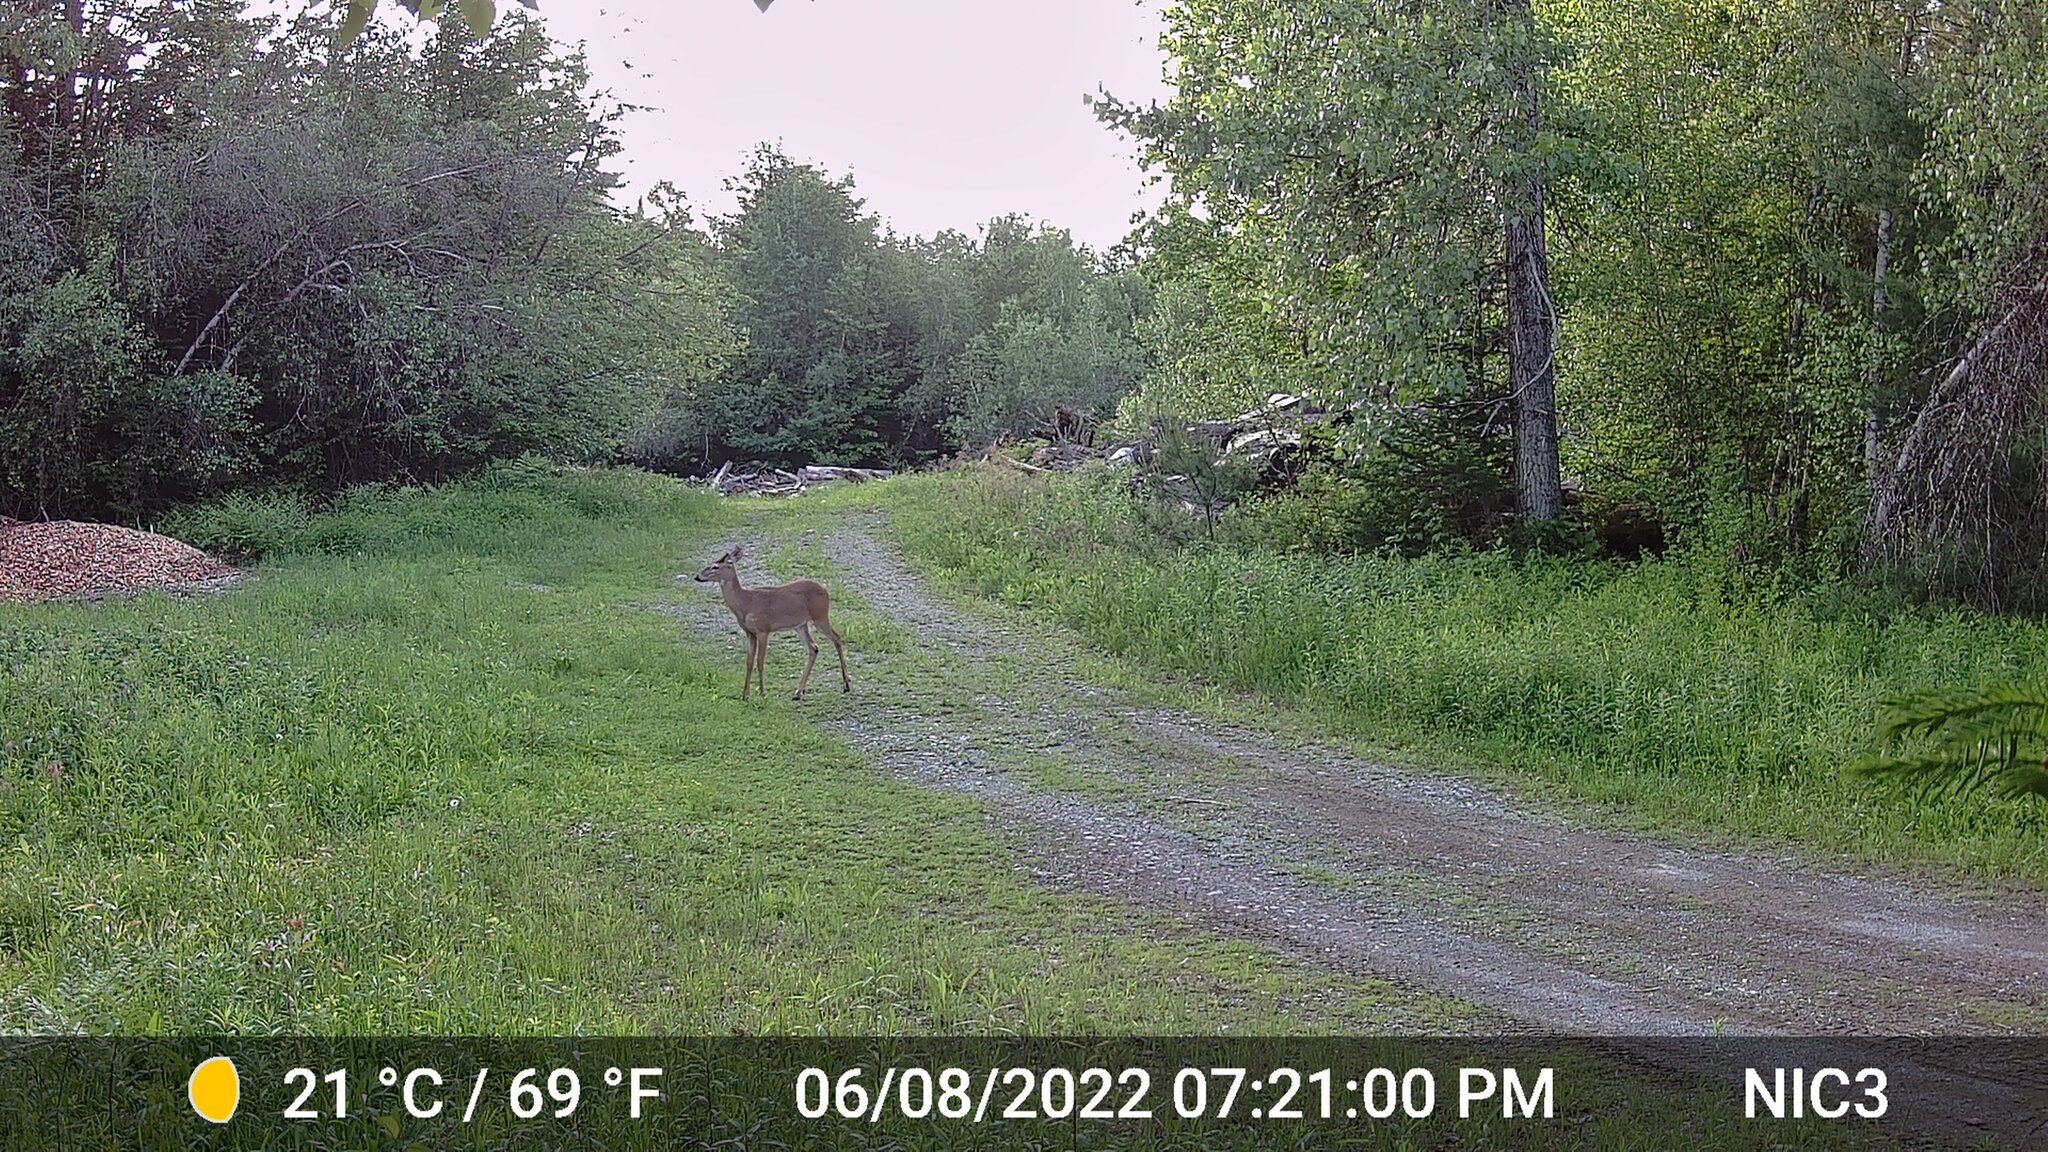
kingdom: Animalia
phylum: Chordata
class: Mammalia
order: Artiodactyla
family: Cervidae
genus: Odocoileus
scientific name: Odocoileus virginianus
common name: White-tailed deer
